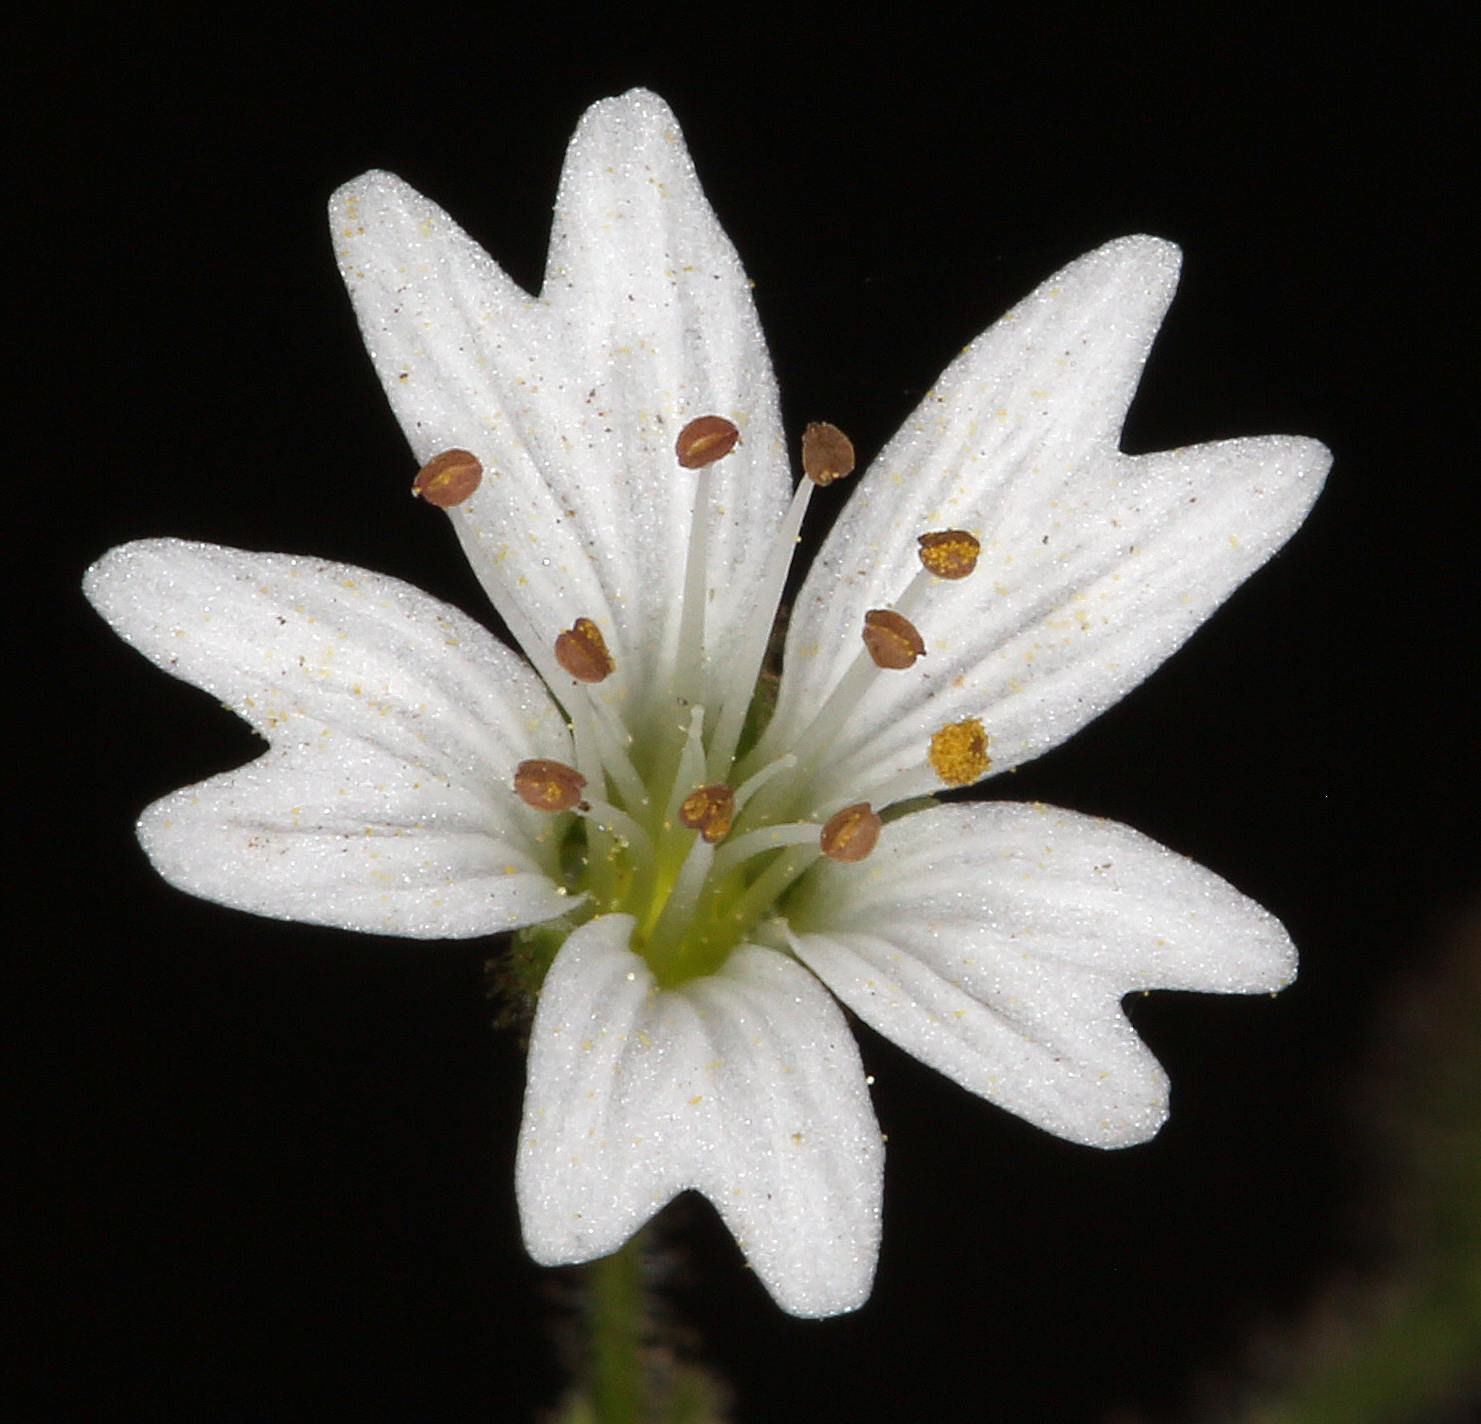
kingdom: Plantae
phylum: Tracheophyta
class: Magnoliopsida
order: Caryophyllales
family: Caryophyllaceae
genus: Schizotechium
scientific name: Schizotechium jamesianum
